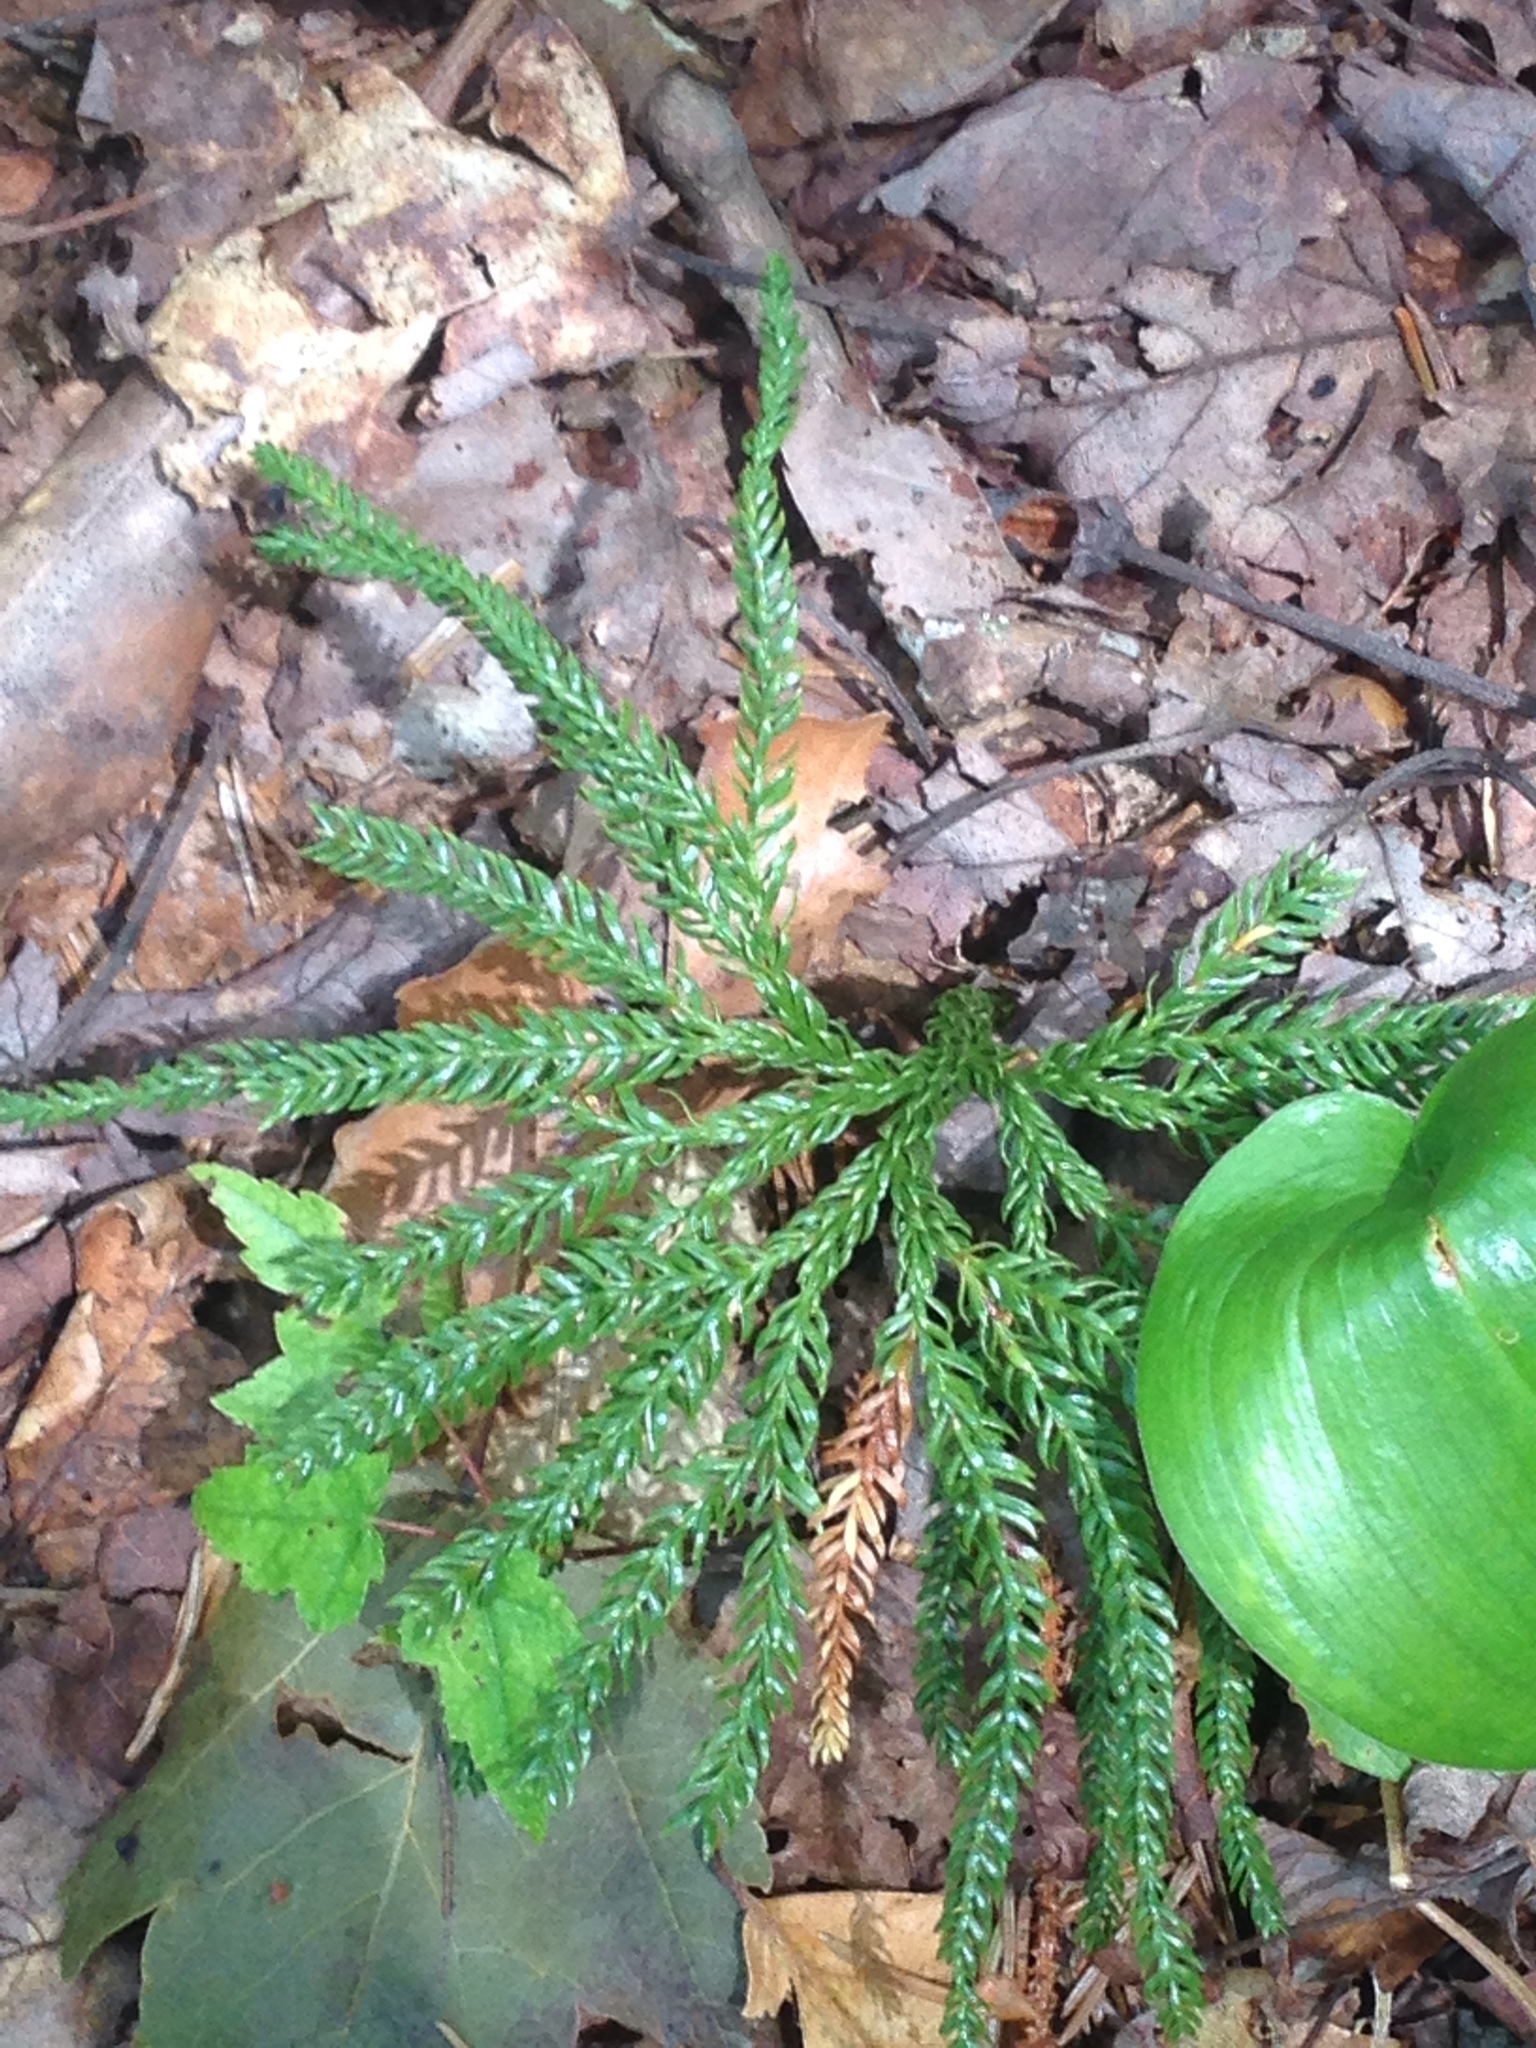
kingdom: Plantae
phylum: Tracheophyta
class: Lycopodiopsida
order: Lycopodiales
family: Lycopodiaceae
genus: Dendrolycopodium
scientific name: Dendrolycopodium obscurum
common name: Common ground-pine
